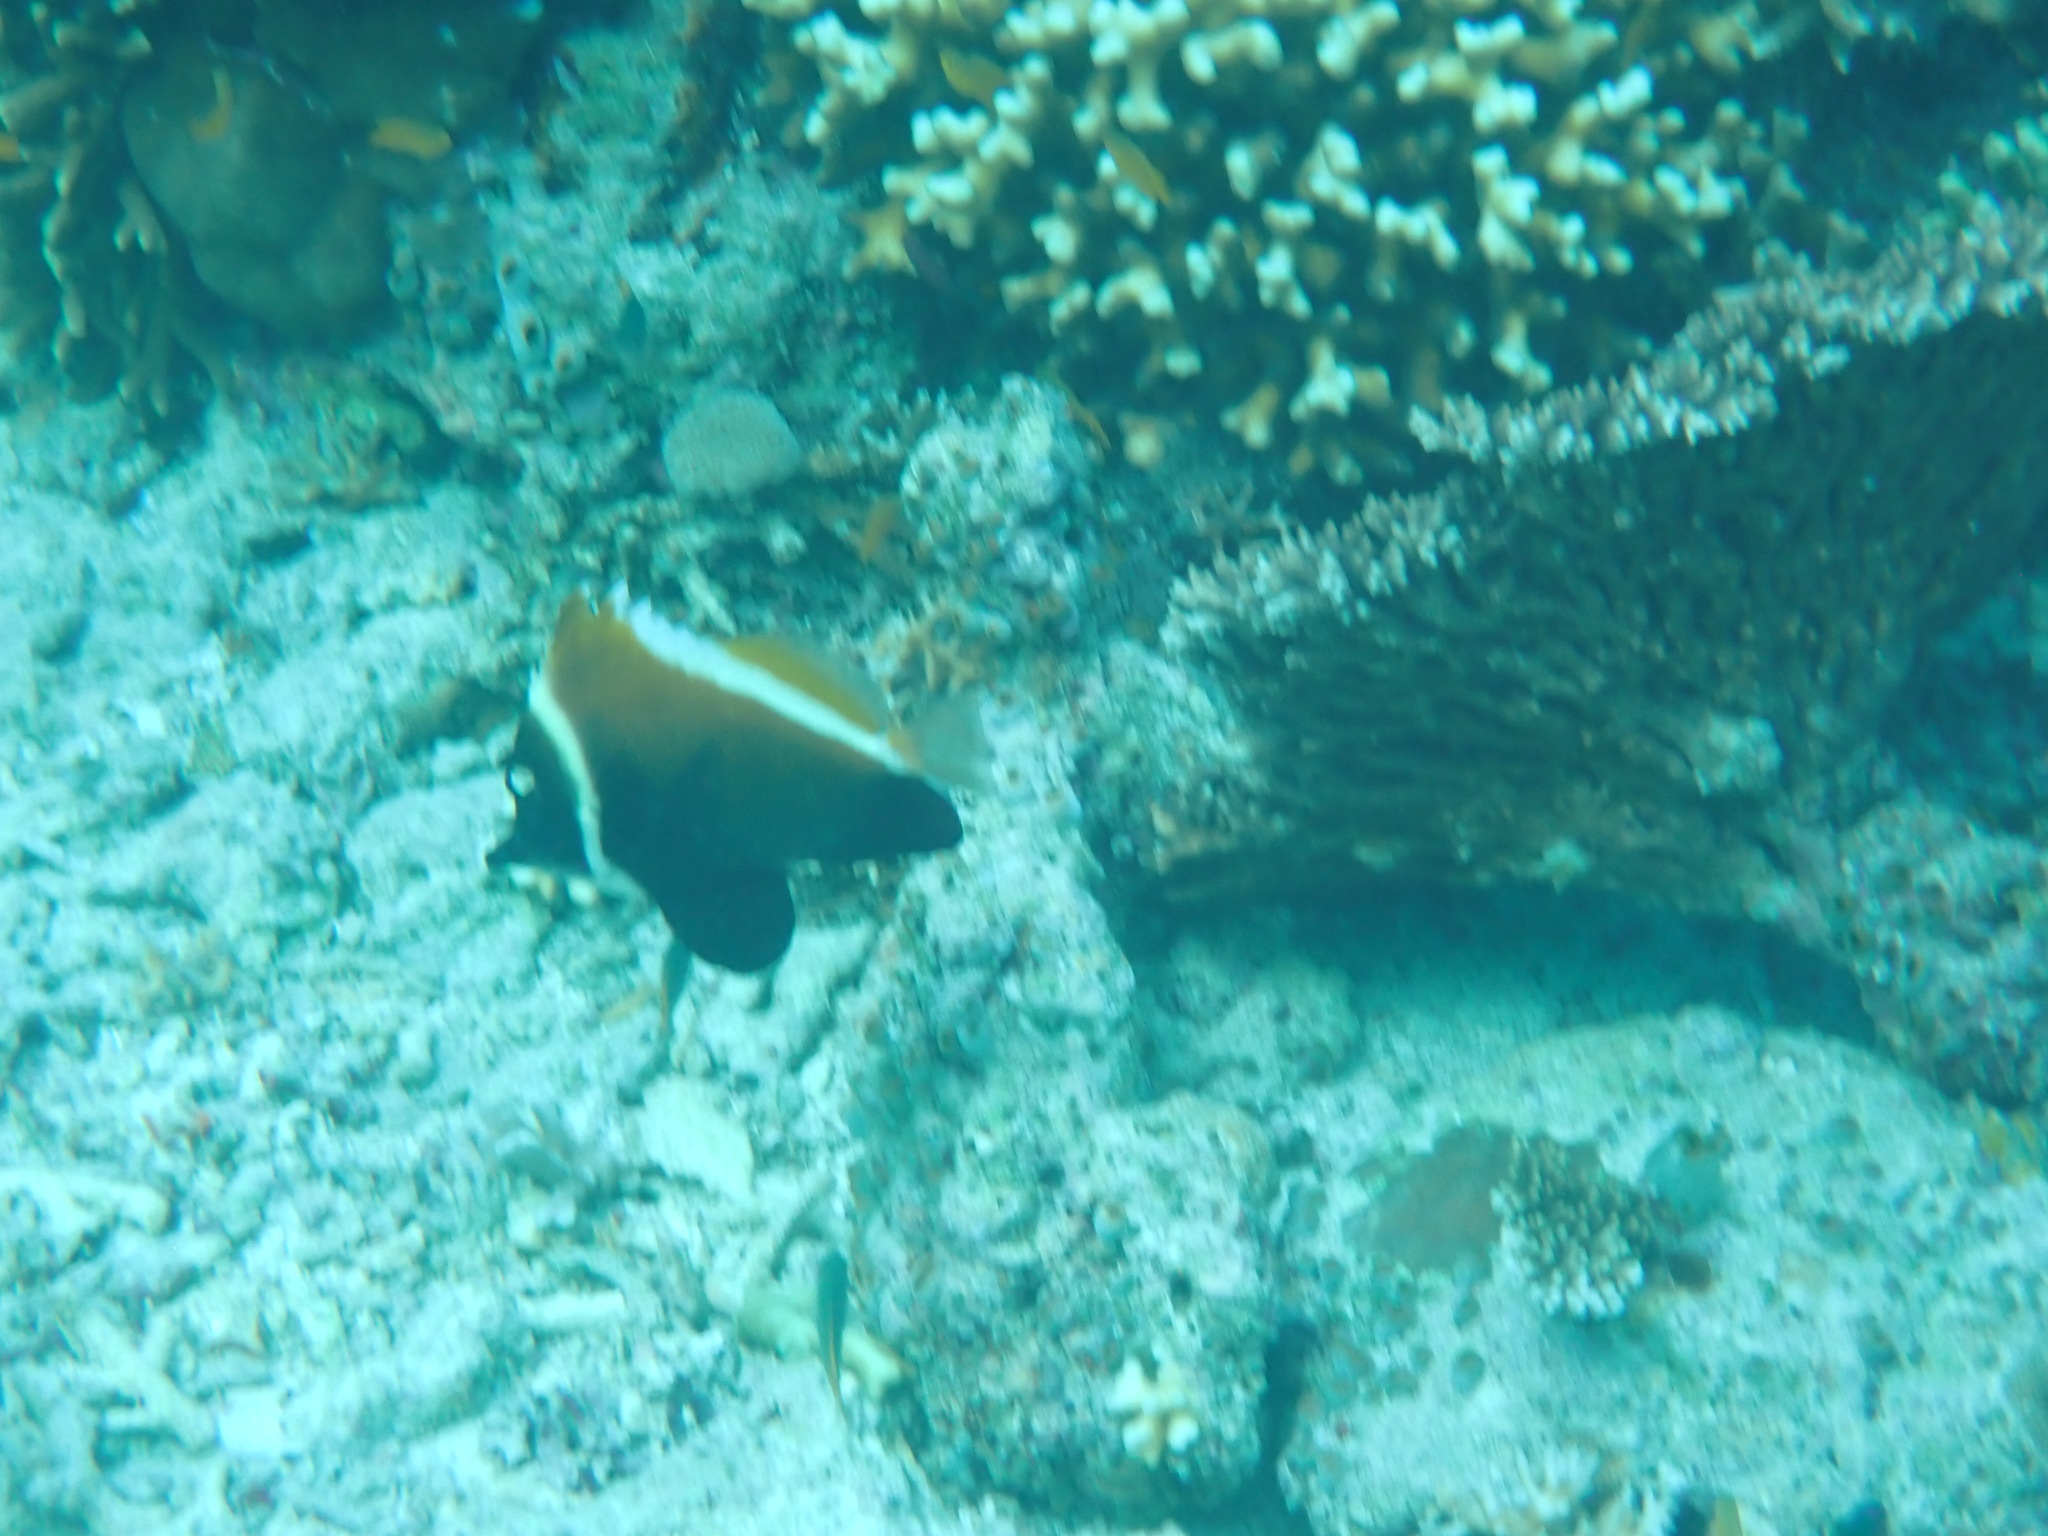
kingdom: Animalia
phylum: Chordata
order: Perciformes
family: Chaetodontidae
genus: Heniochus
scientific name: Heniochus varius
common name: Horned bannerfish
